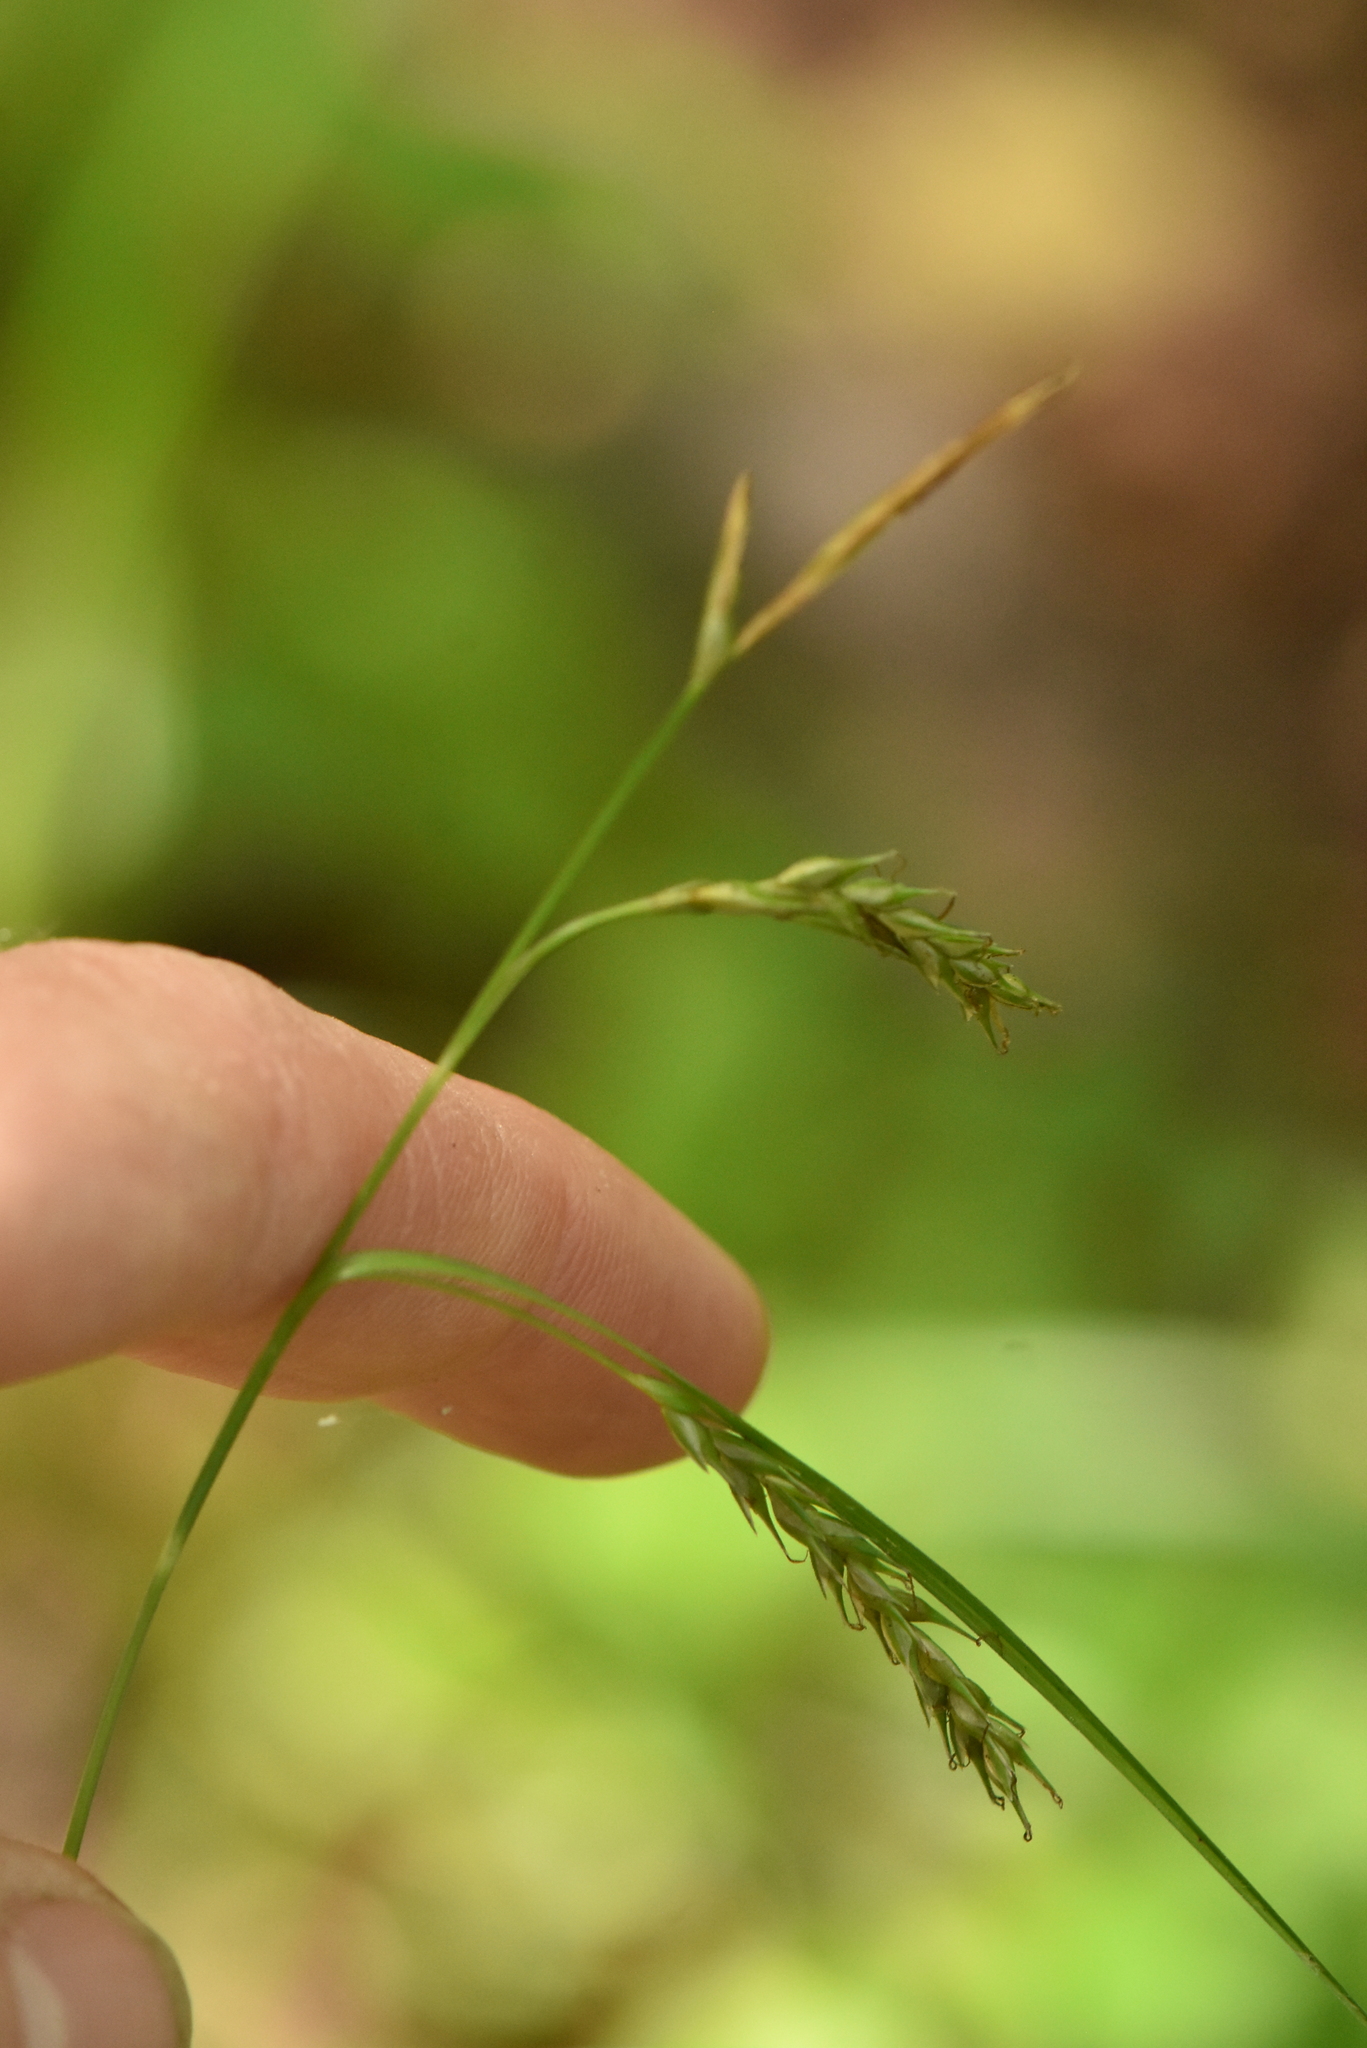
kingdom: Plantae
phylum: Tracheophyta
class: Liliopsida
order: Poales
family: Cyperaceae
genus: Carex
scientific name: Carex sylvatica
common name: Wood-sedge
